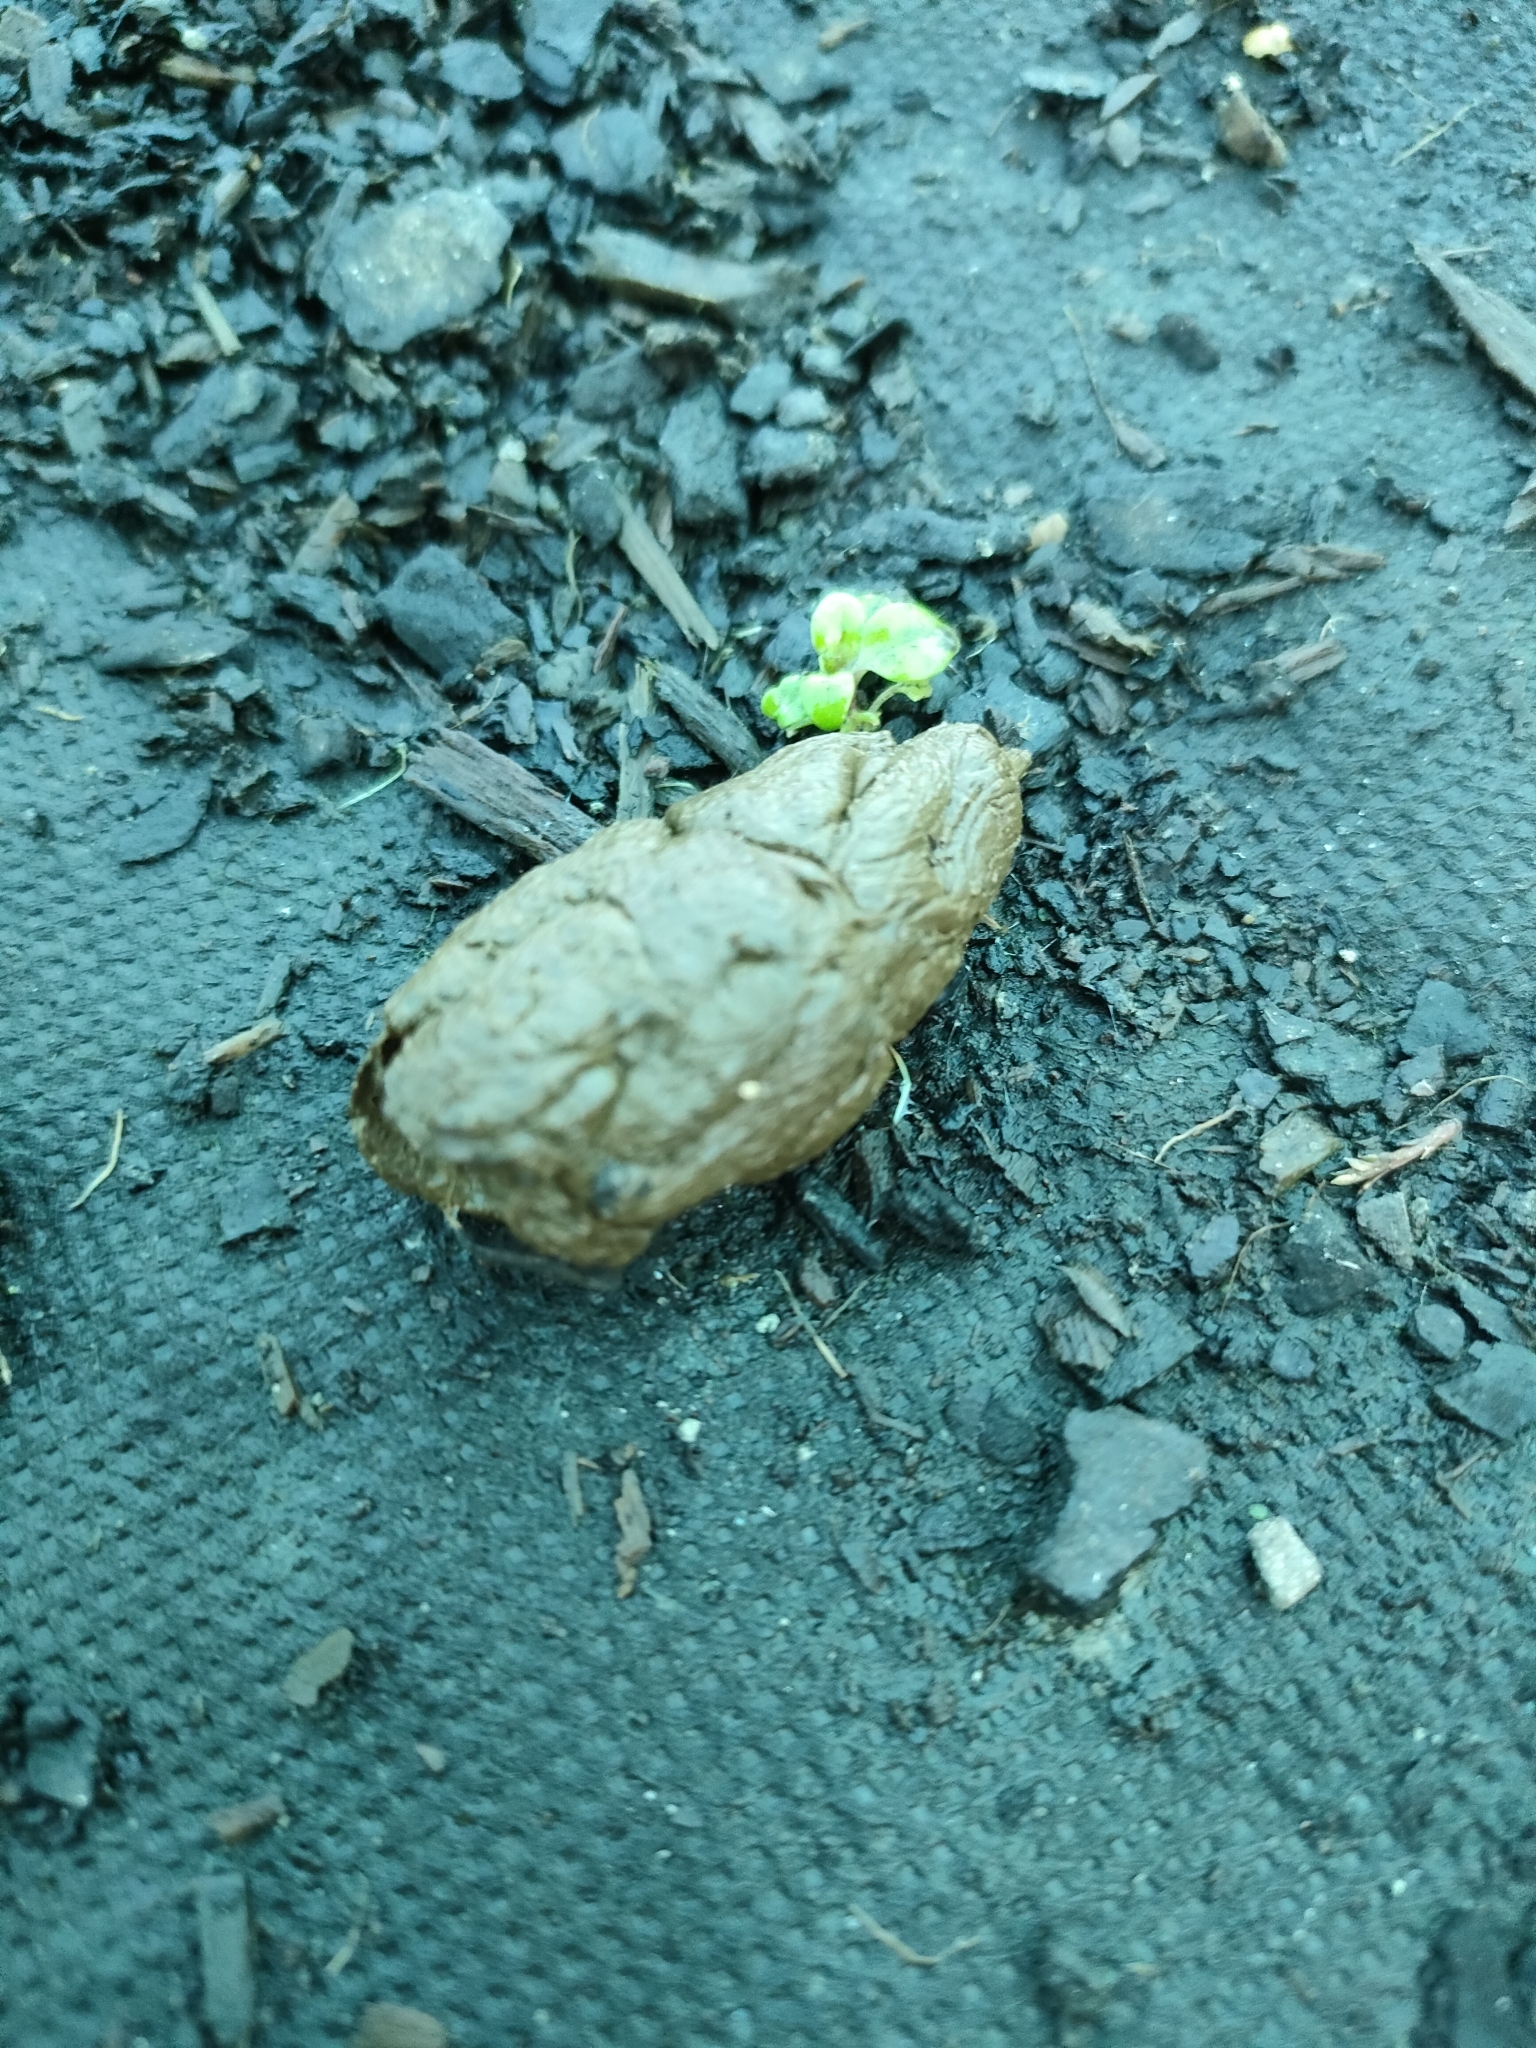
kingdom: Animalia
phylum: Chordata
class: Mammalia
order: Diprotodontia
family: Phalangeridae
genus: Trichosurus
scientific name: Trichosurus vulpecula
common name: Common brushtail
